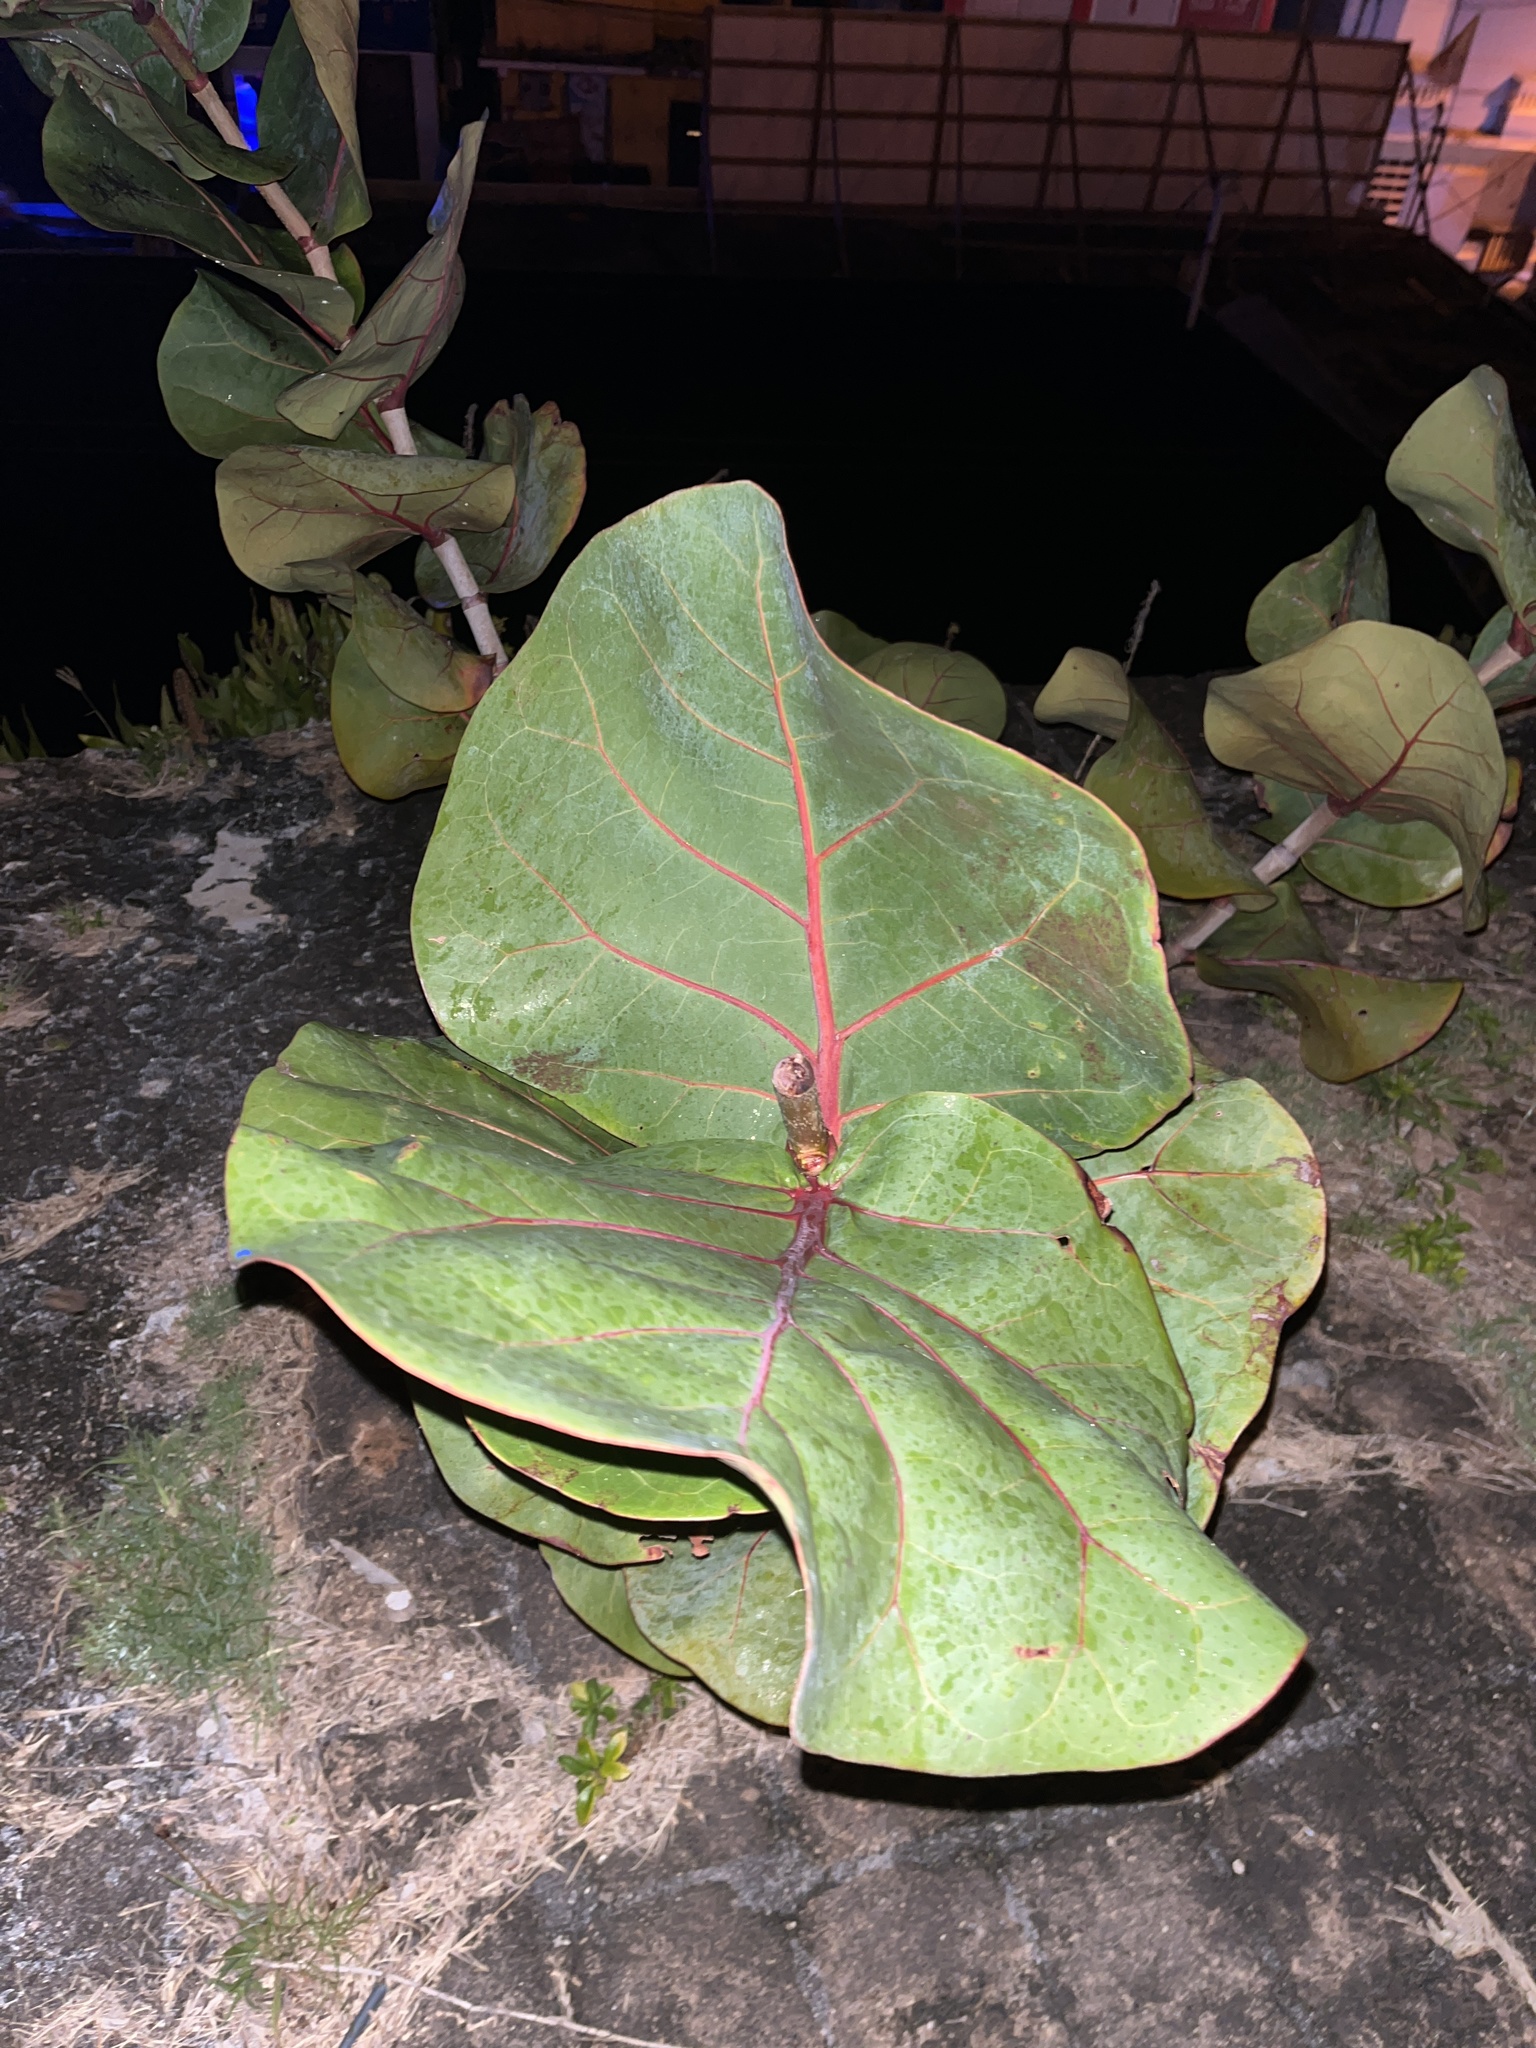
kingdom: Plantae
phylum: Tracheophyta
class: Magnoliopsida
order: Caryophyllales
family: Polygonaceae
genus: Coccoloba
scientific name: Coccoloba uvifera
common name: Seagrape
